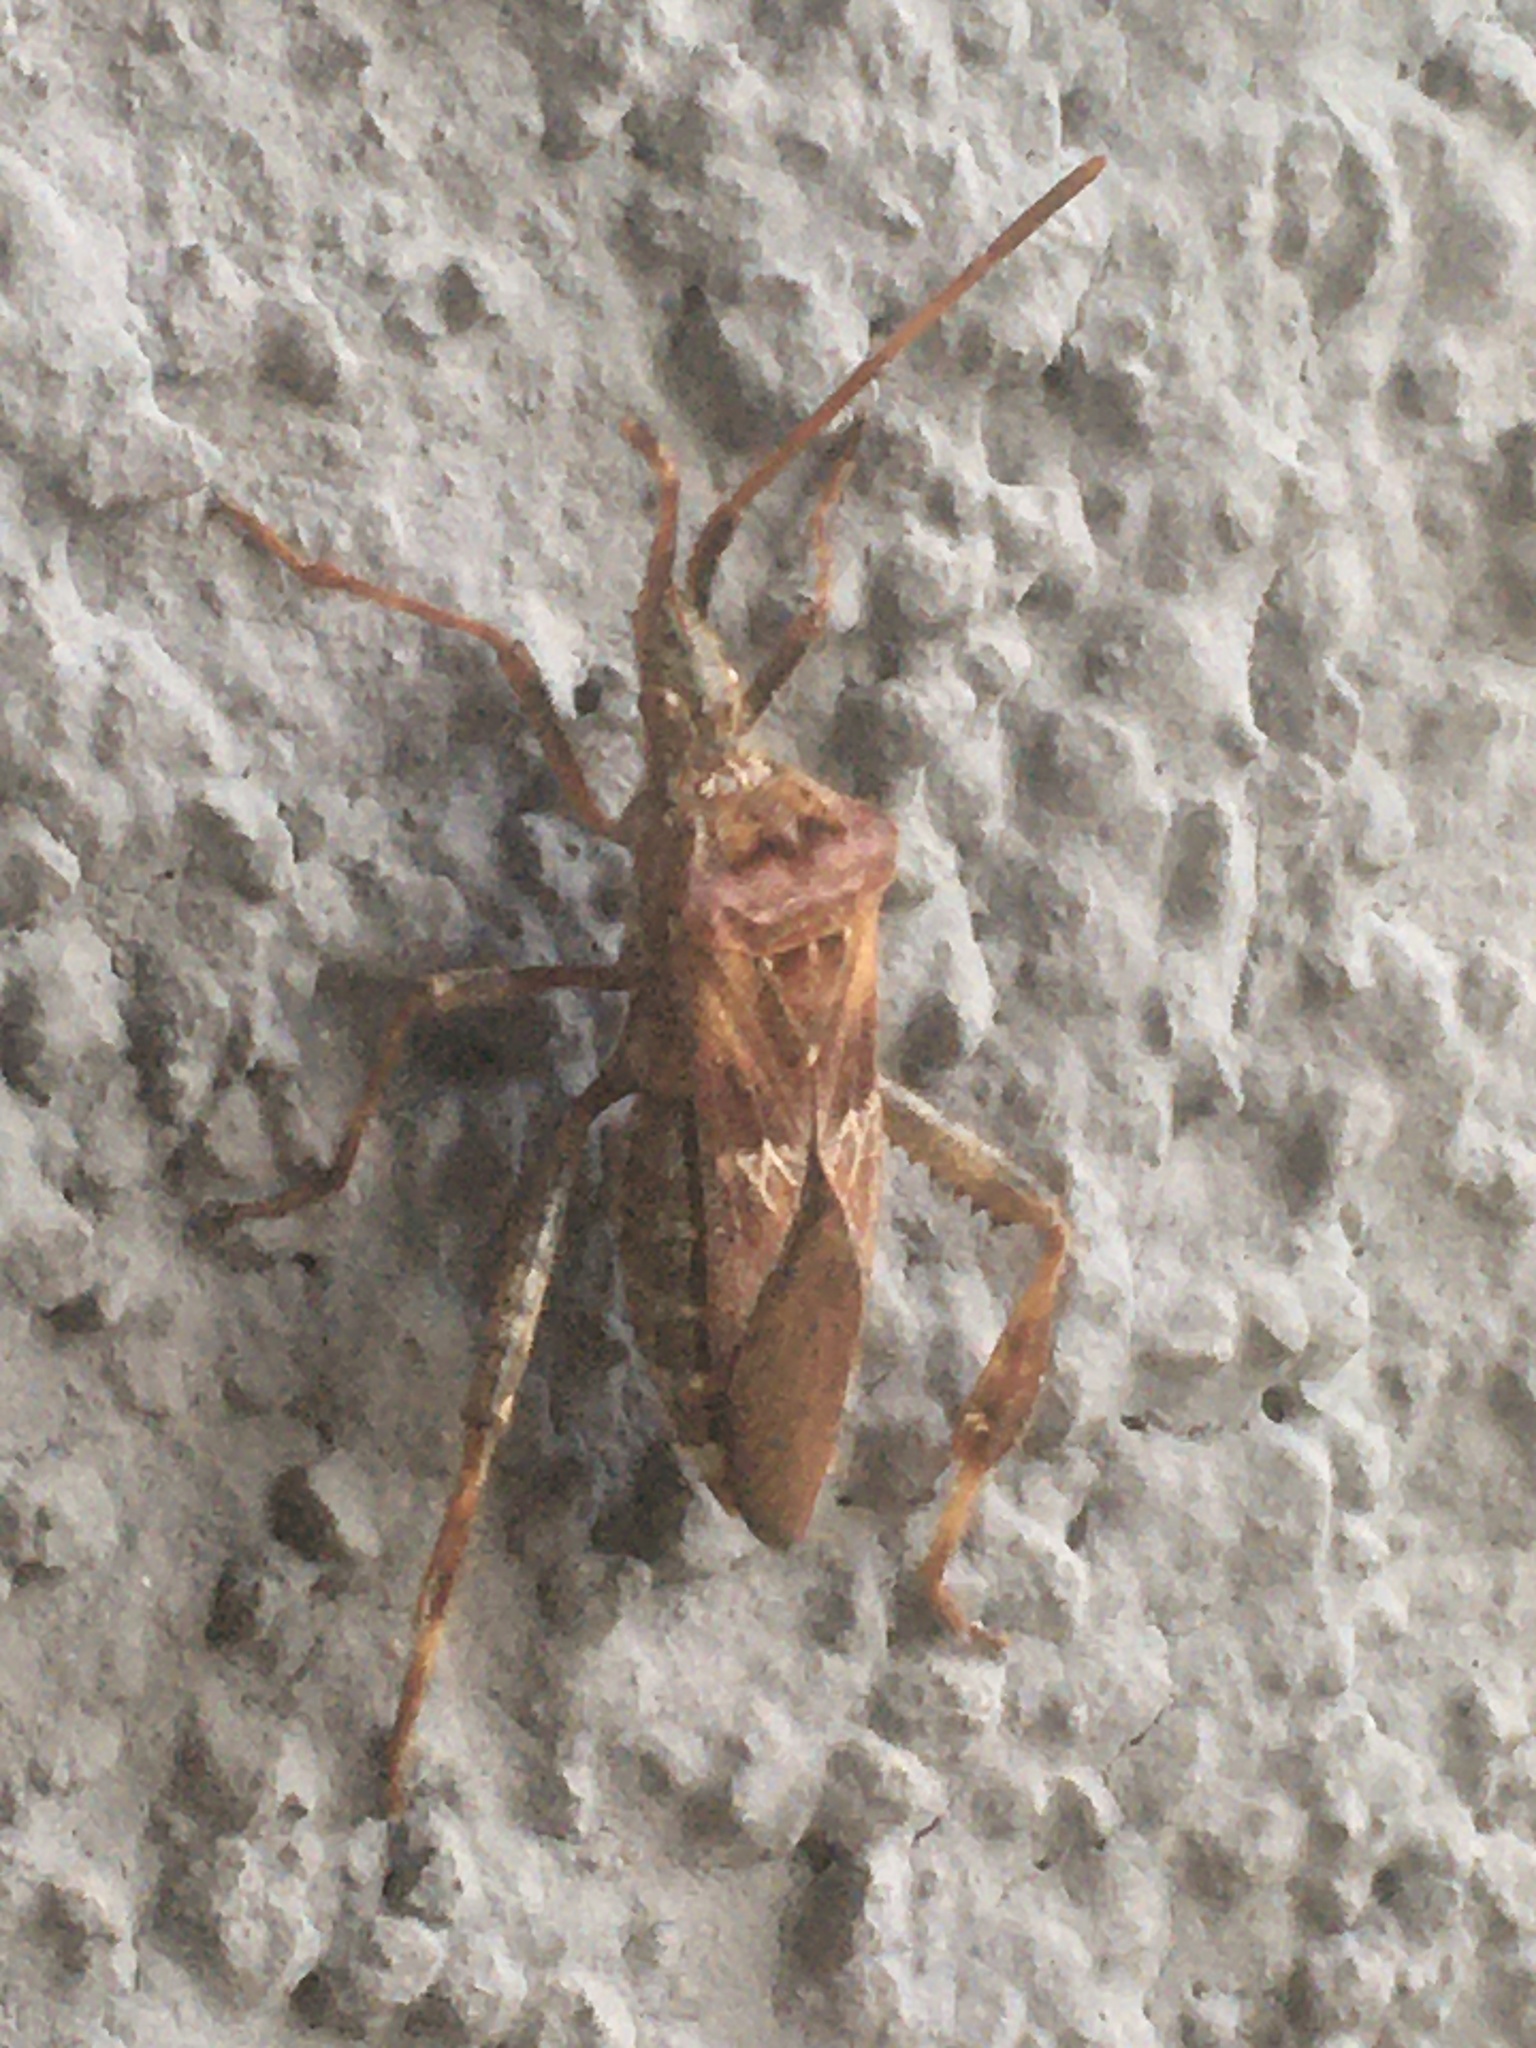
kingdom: Animalia
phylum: Arthropoda
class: Insecta
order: Hemiptera
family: Coreidae
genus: Leptoglossus
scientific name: Leptoglossus occidentalis
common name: Western conifer-seed bug
